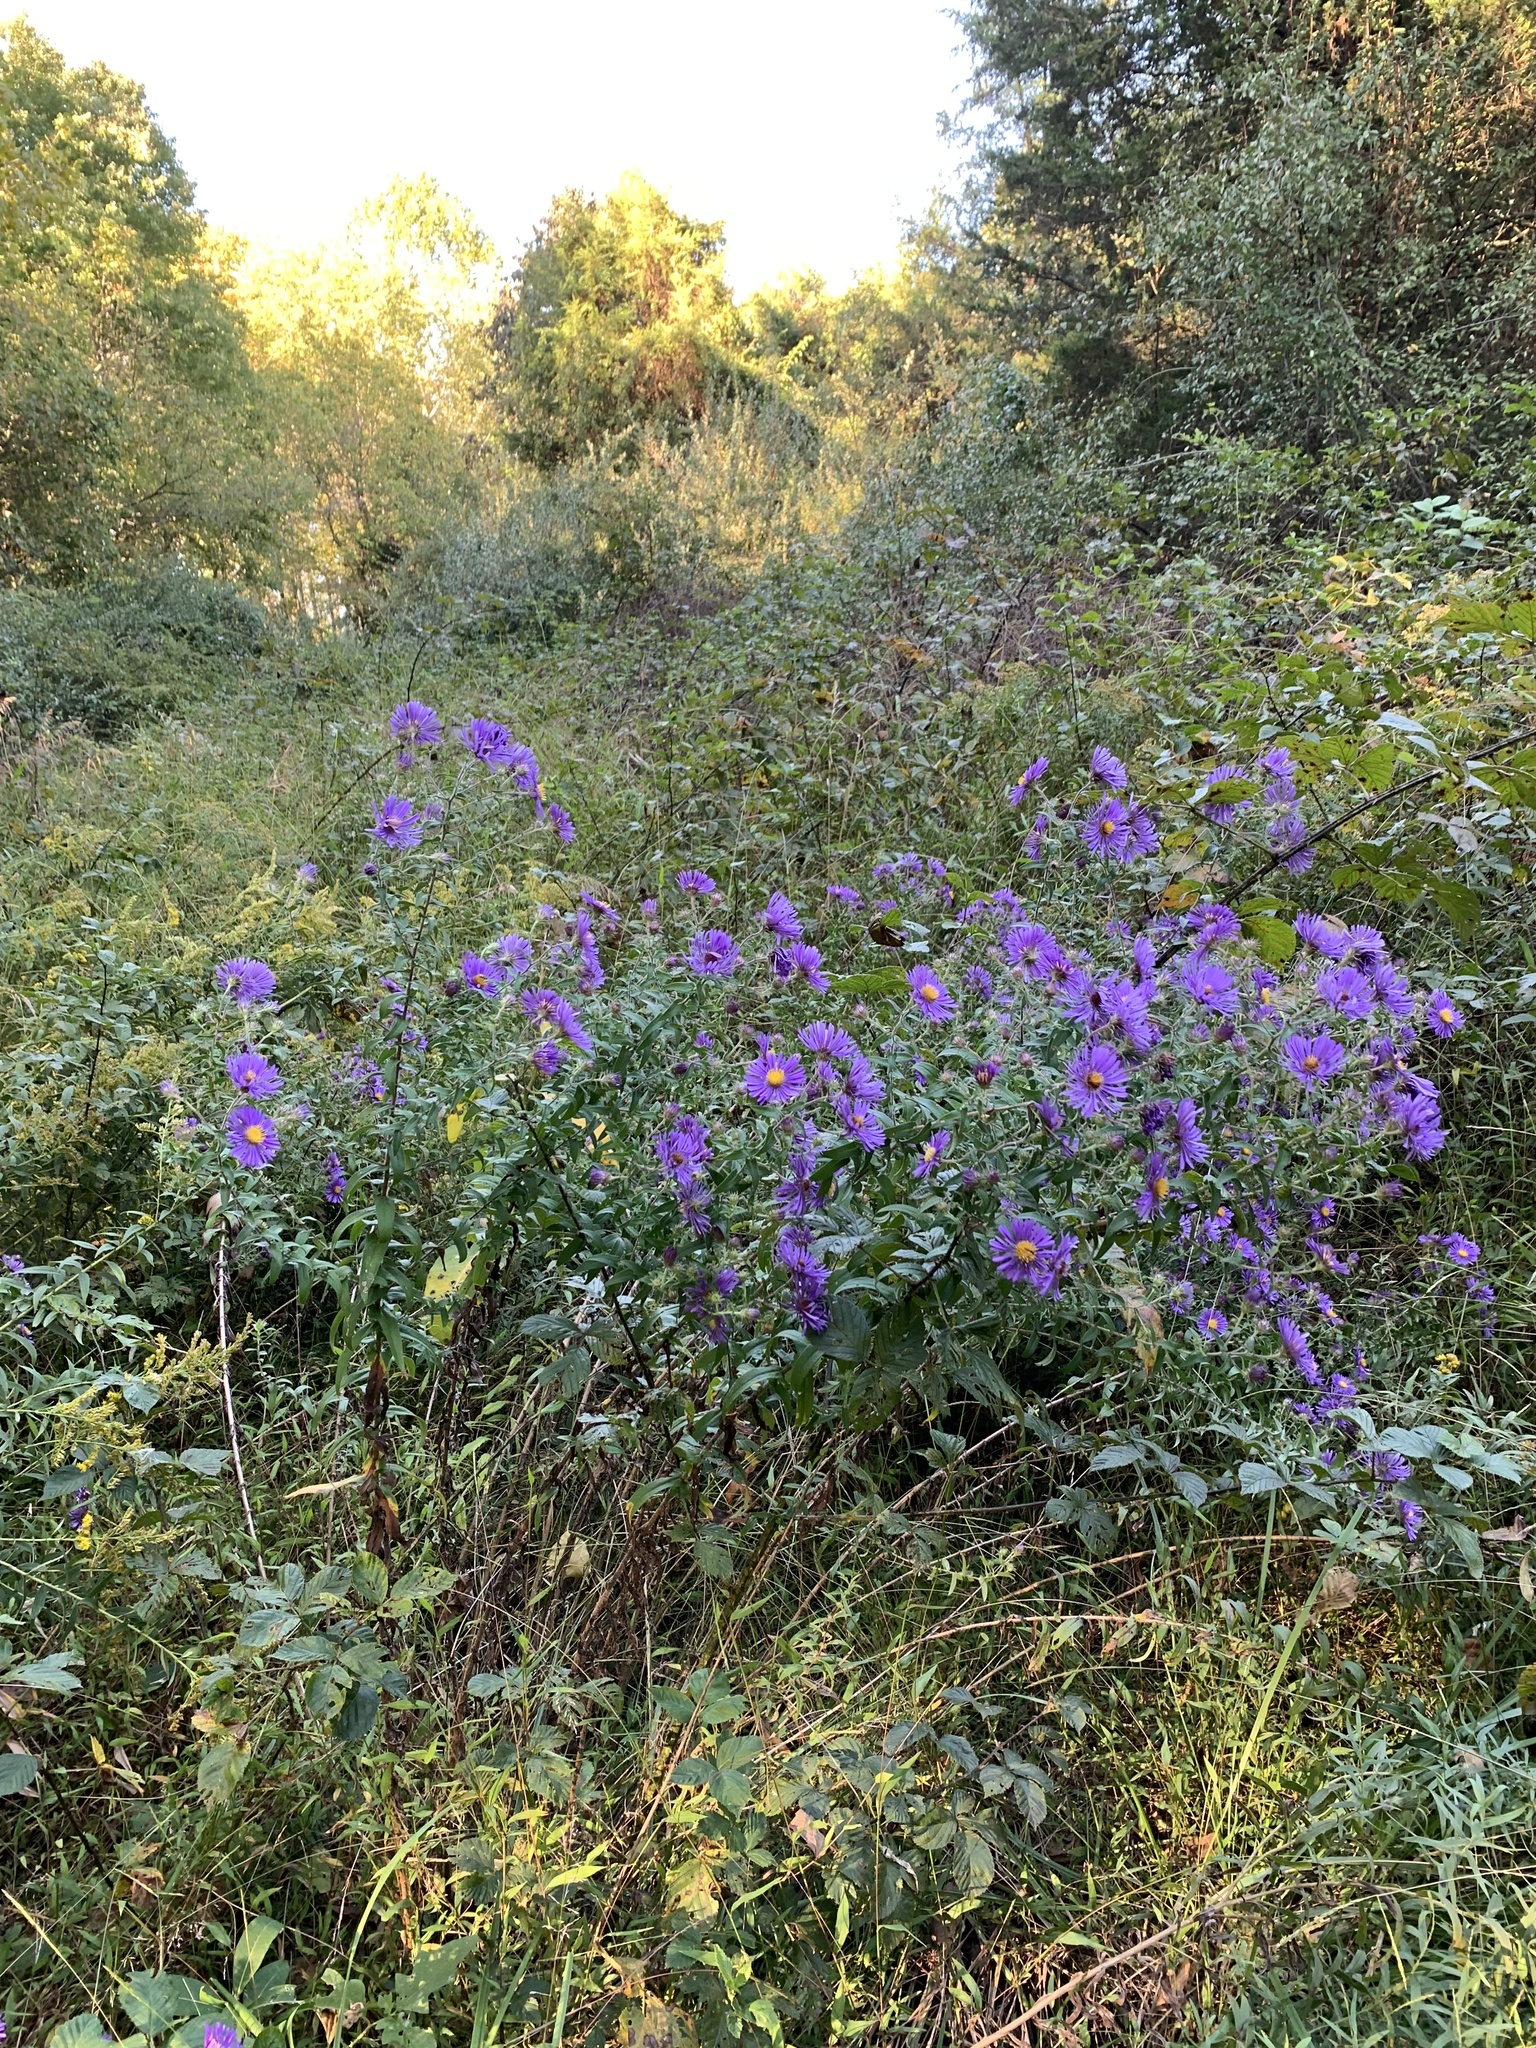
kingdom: Plantae
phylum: Tracheophyta
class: Magnoliopsida
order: Asterales
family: Asteraceae
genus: Symphyotrichum
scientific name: Symphyotrichum novae-angliae
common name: Michaelmas daisy
